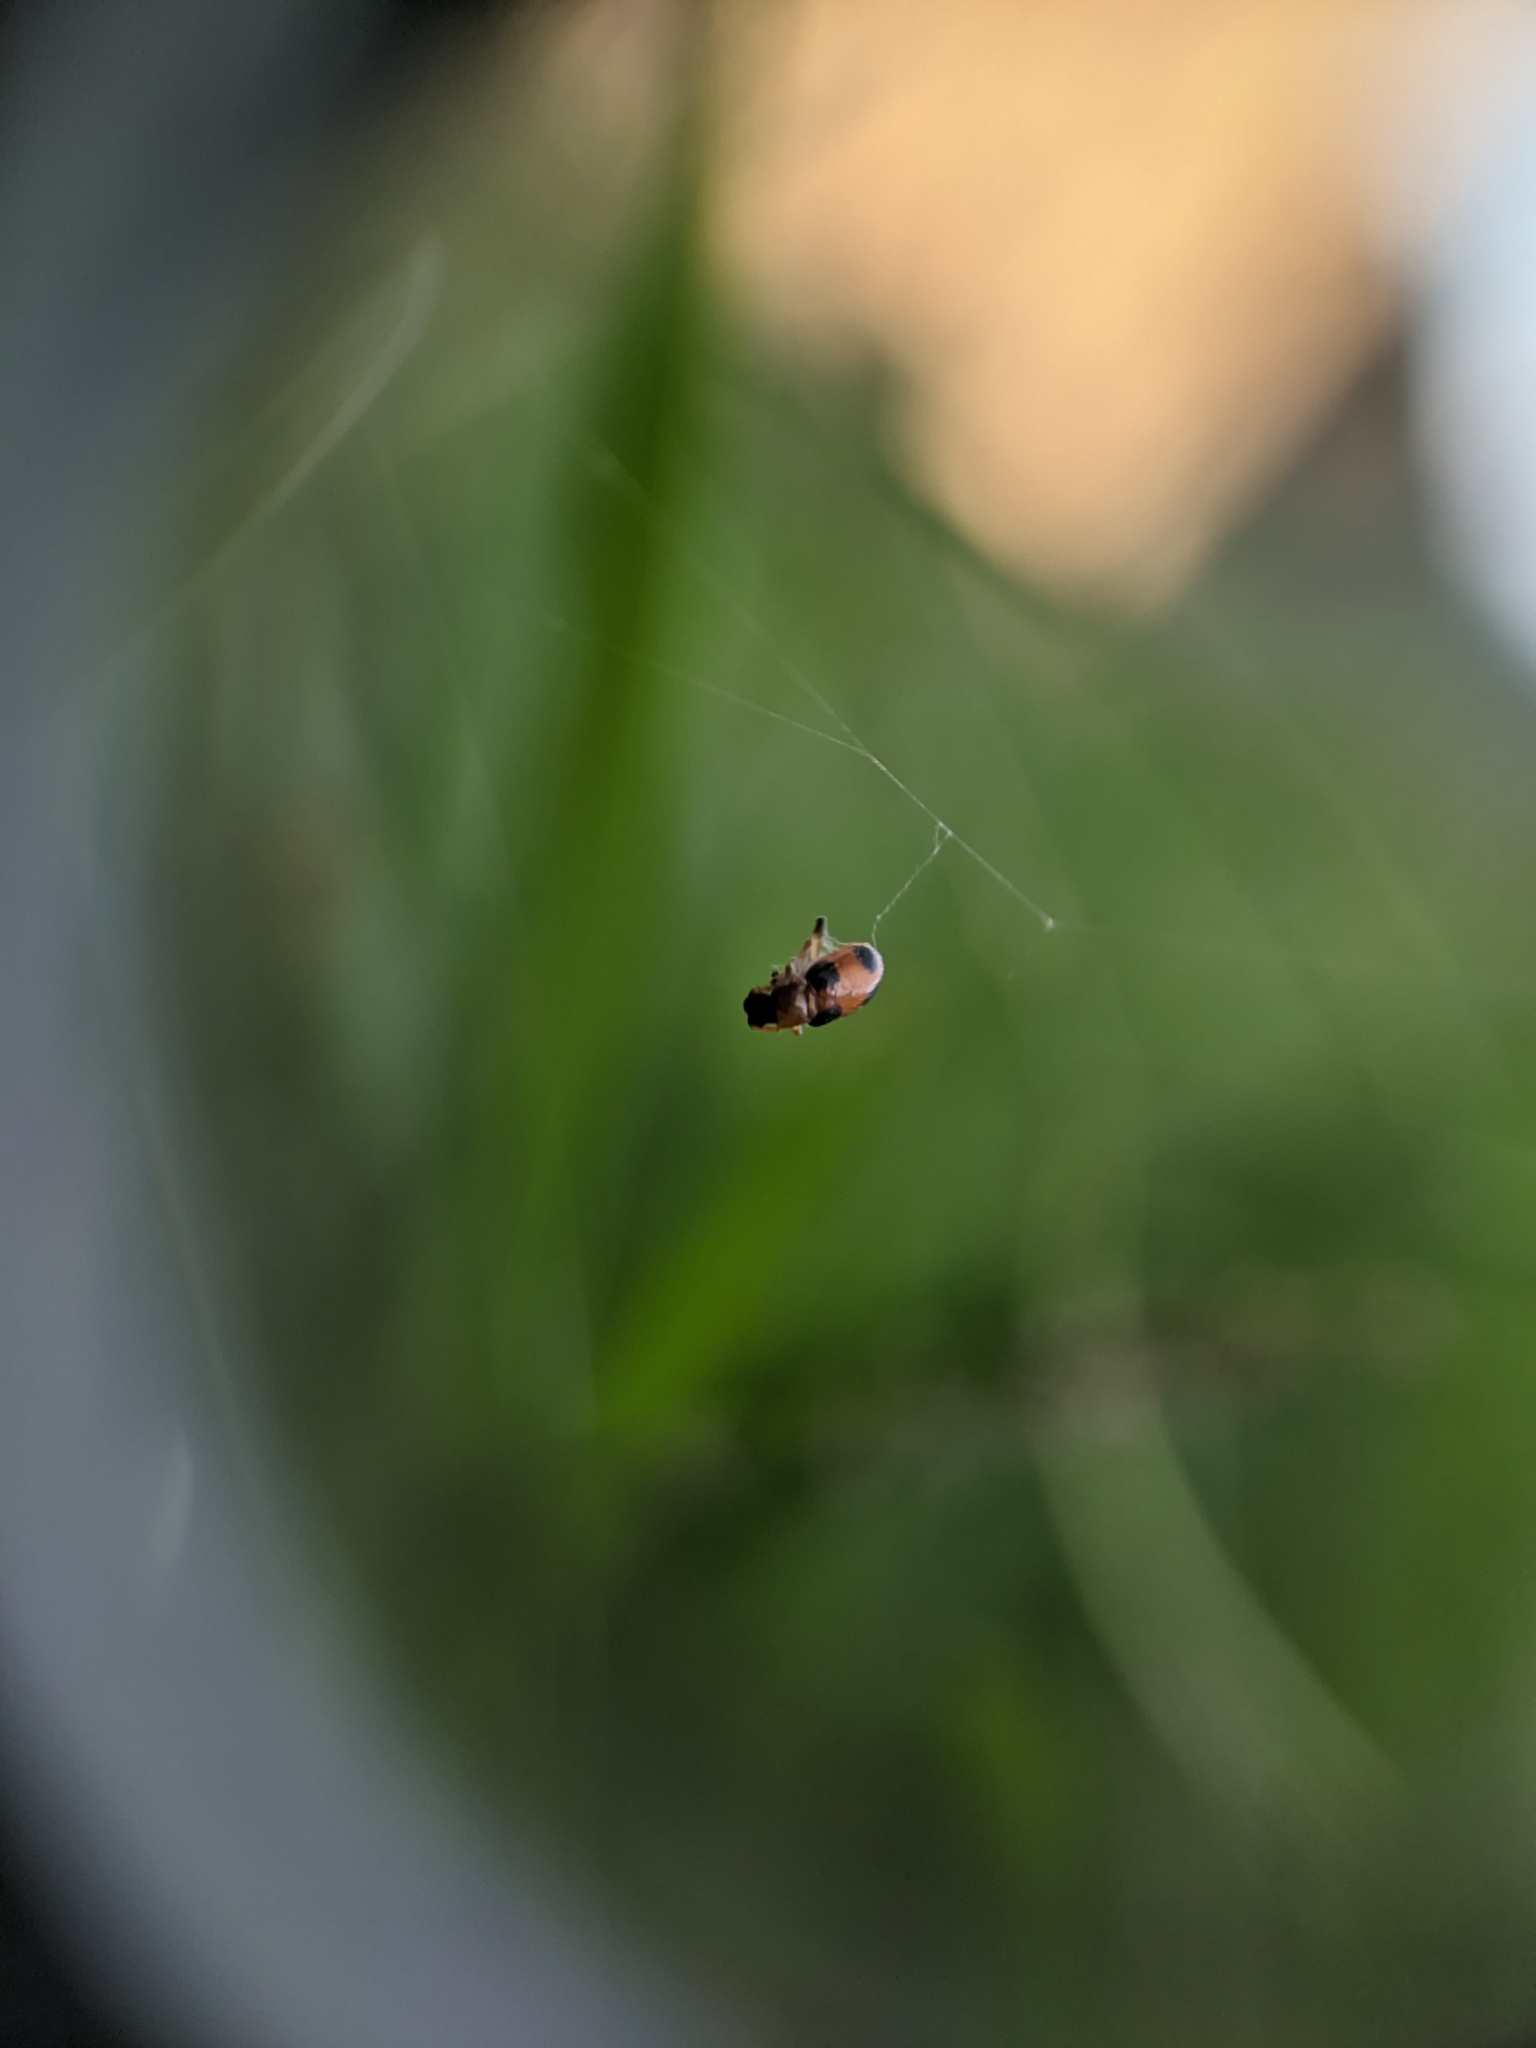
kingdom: Animalia
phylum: Arthropoda
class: Insecta
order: Coleoptera
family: Chrysomelidae
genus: Cornulactica
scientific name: Cornulactica
